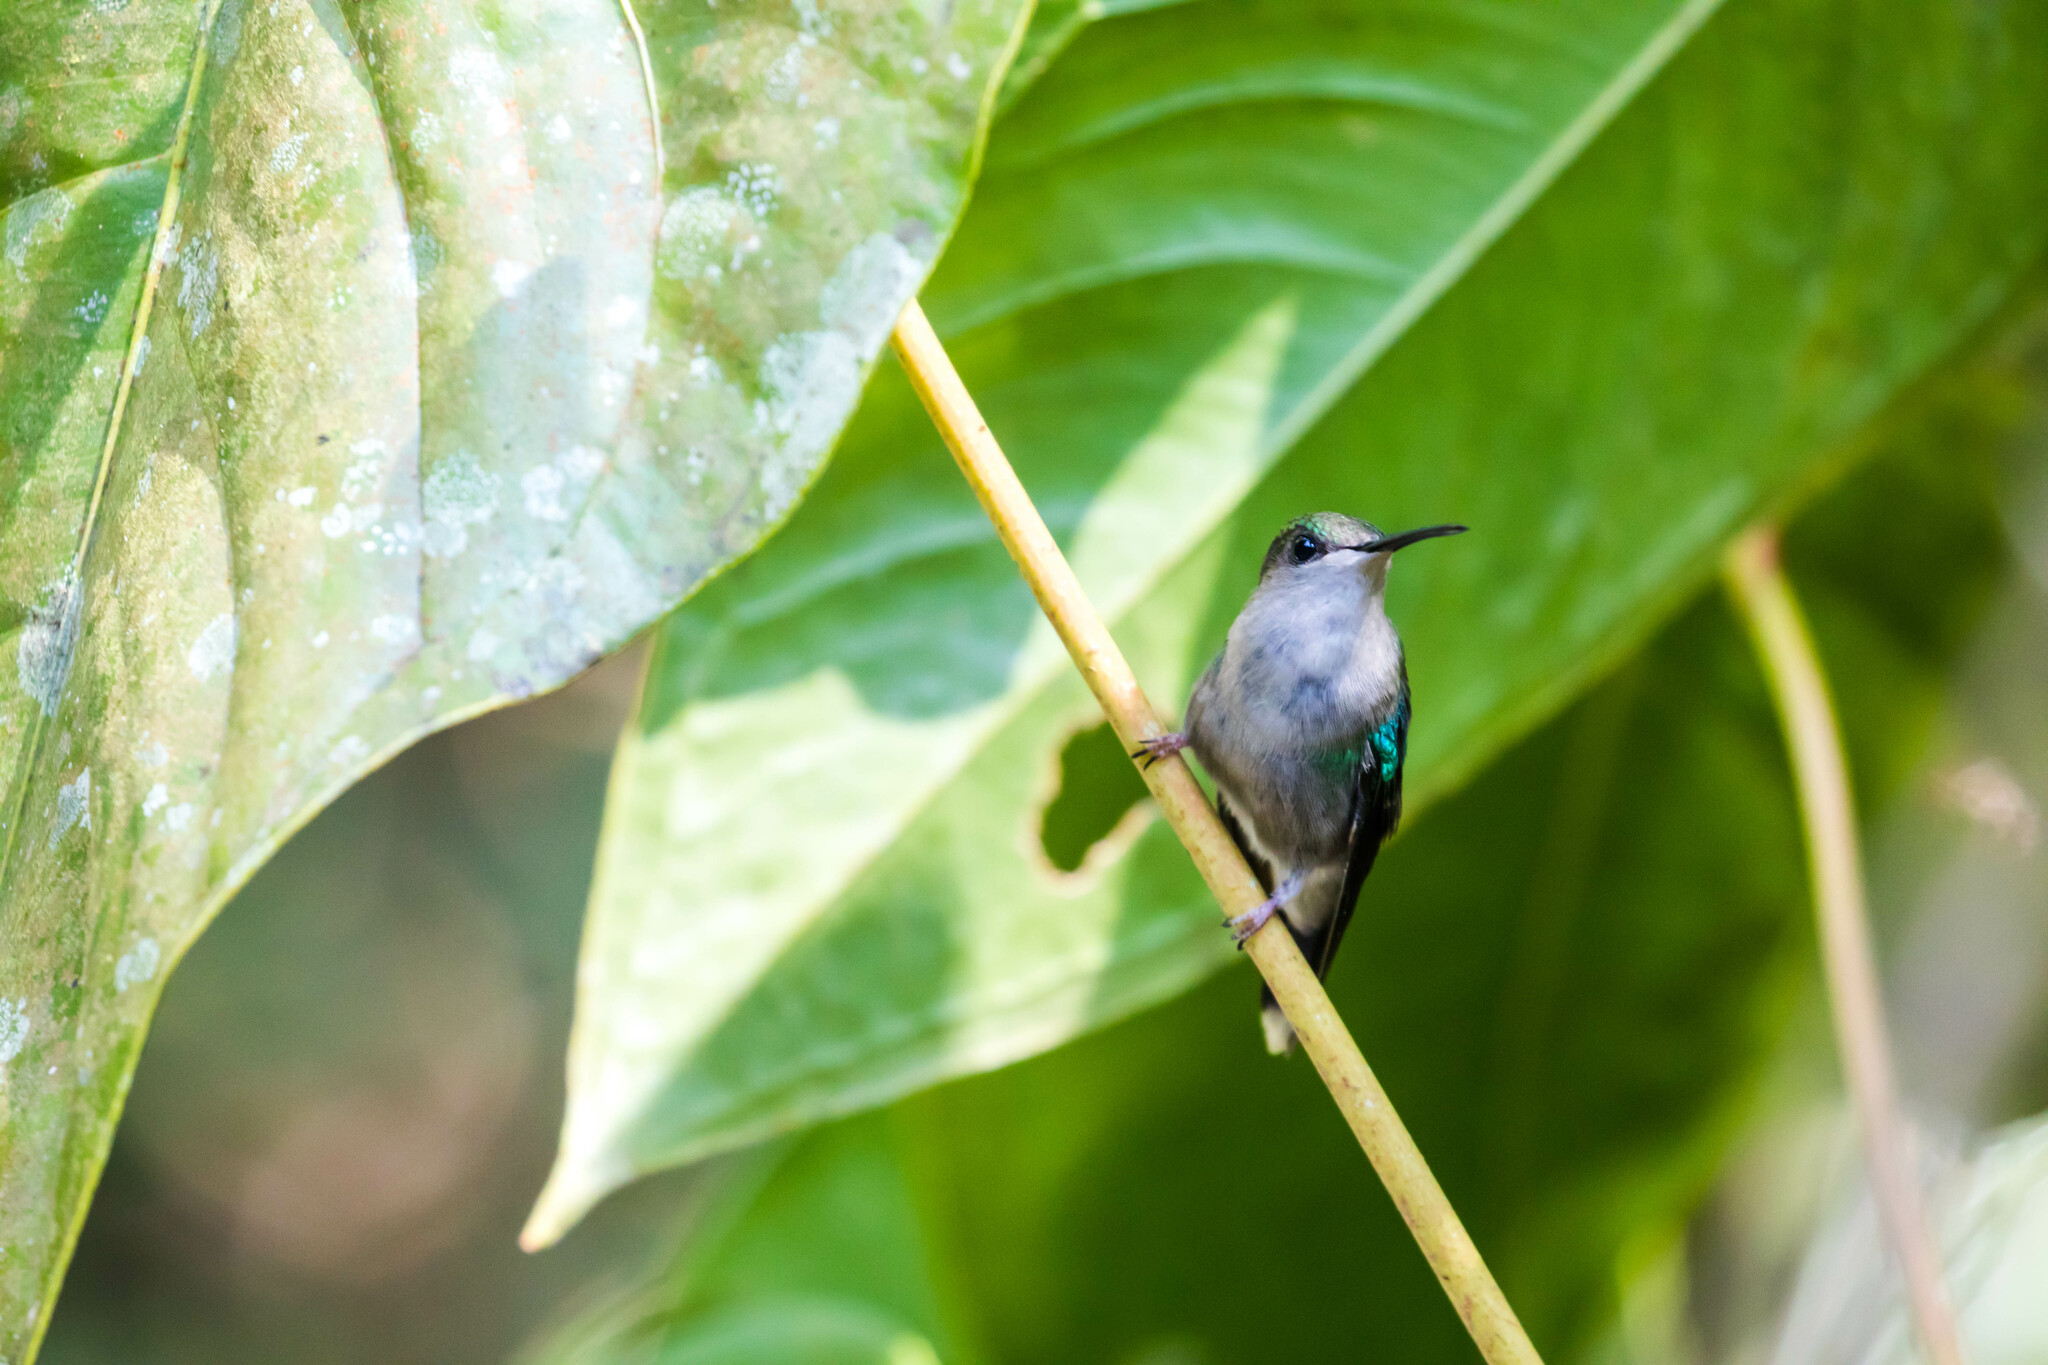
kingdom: Animalia
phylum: Chordata
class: Aves
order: Apodiformes
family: Trochilidae
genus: Thalurania
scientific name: Thalurania colombica
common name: Crowned woodnymph
